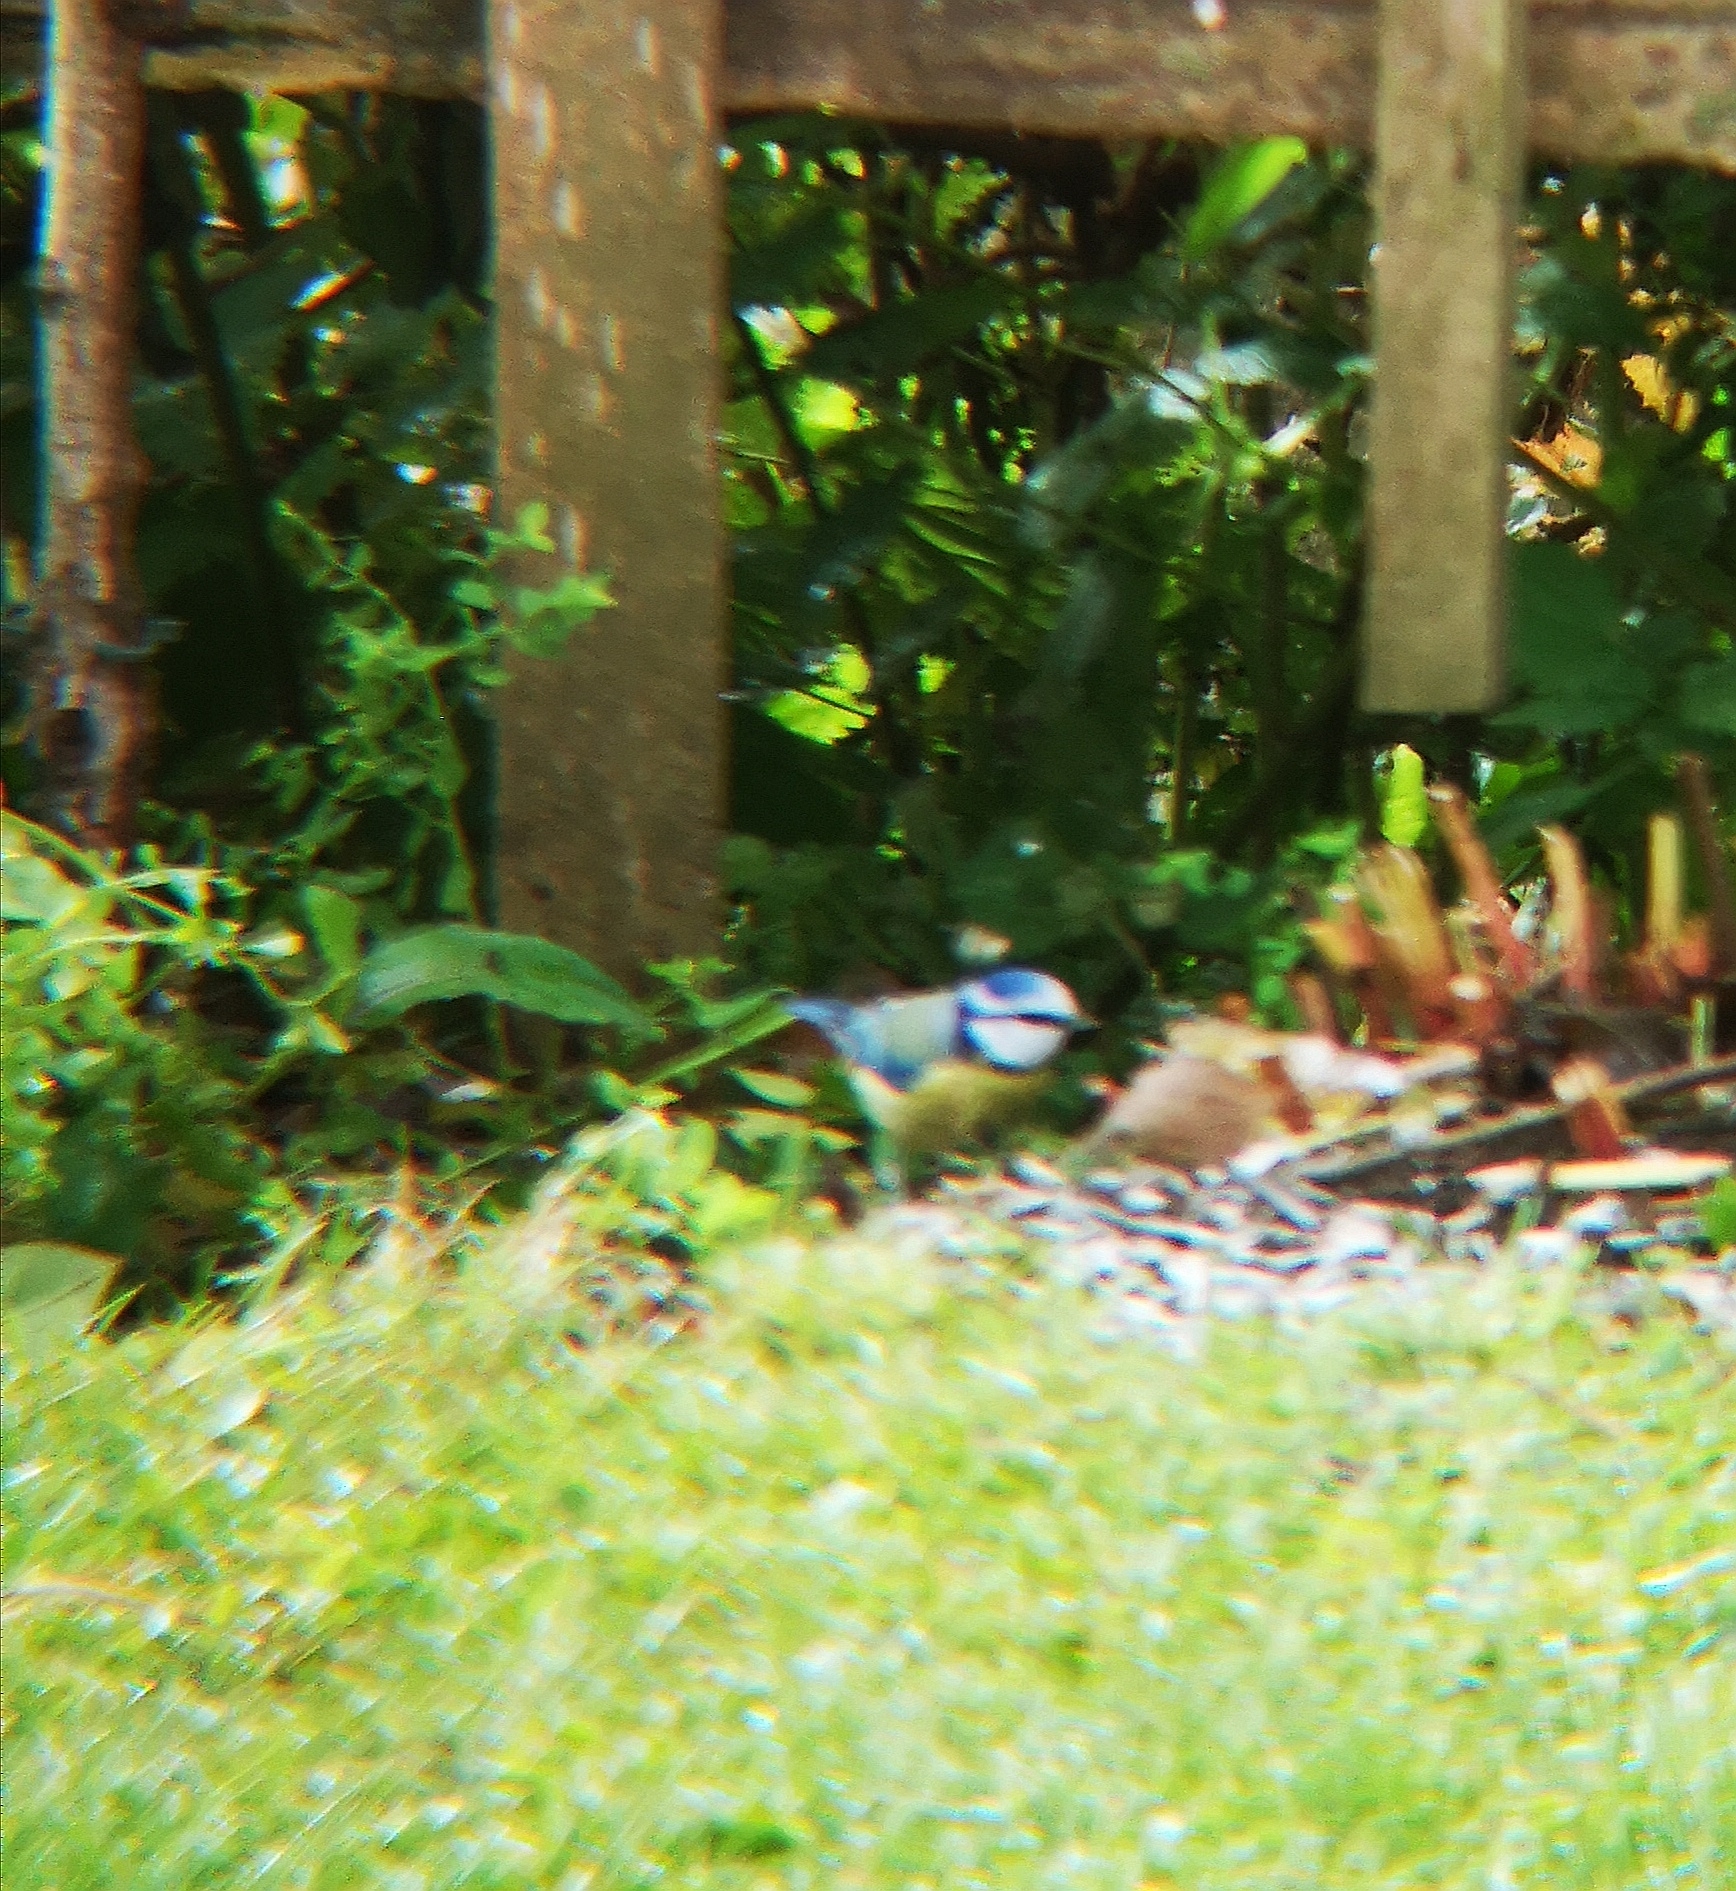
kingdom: Animalia
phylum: Chordata
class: Aves
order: Passeriformes
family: Paridae
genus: Cyanistes
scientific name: Cyanistes caeruleus
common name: Eurasian blue tit
